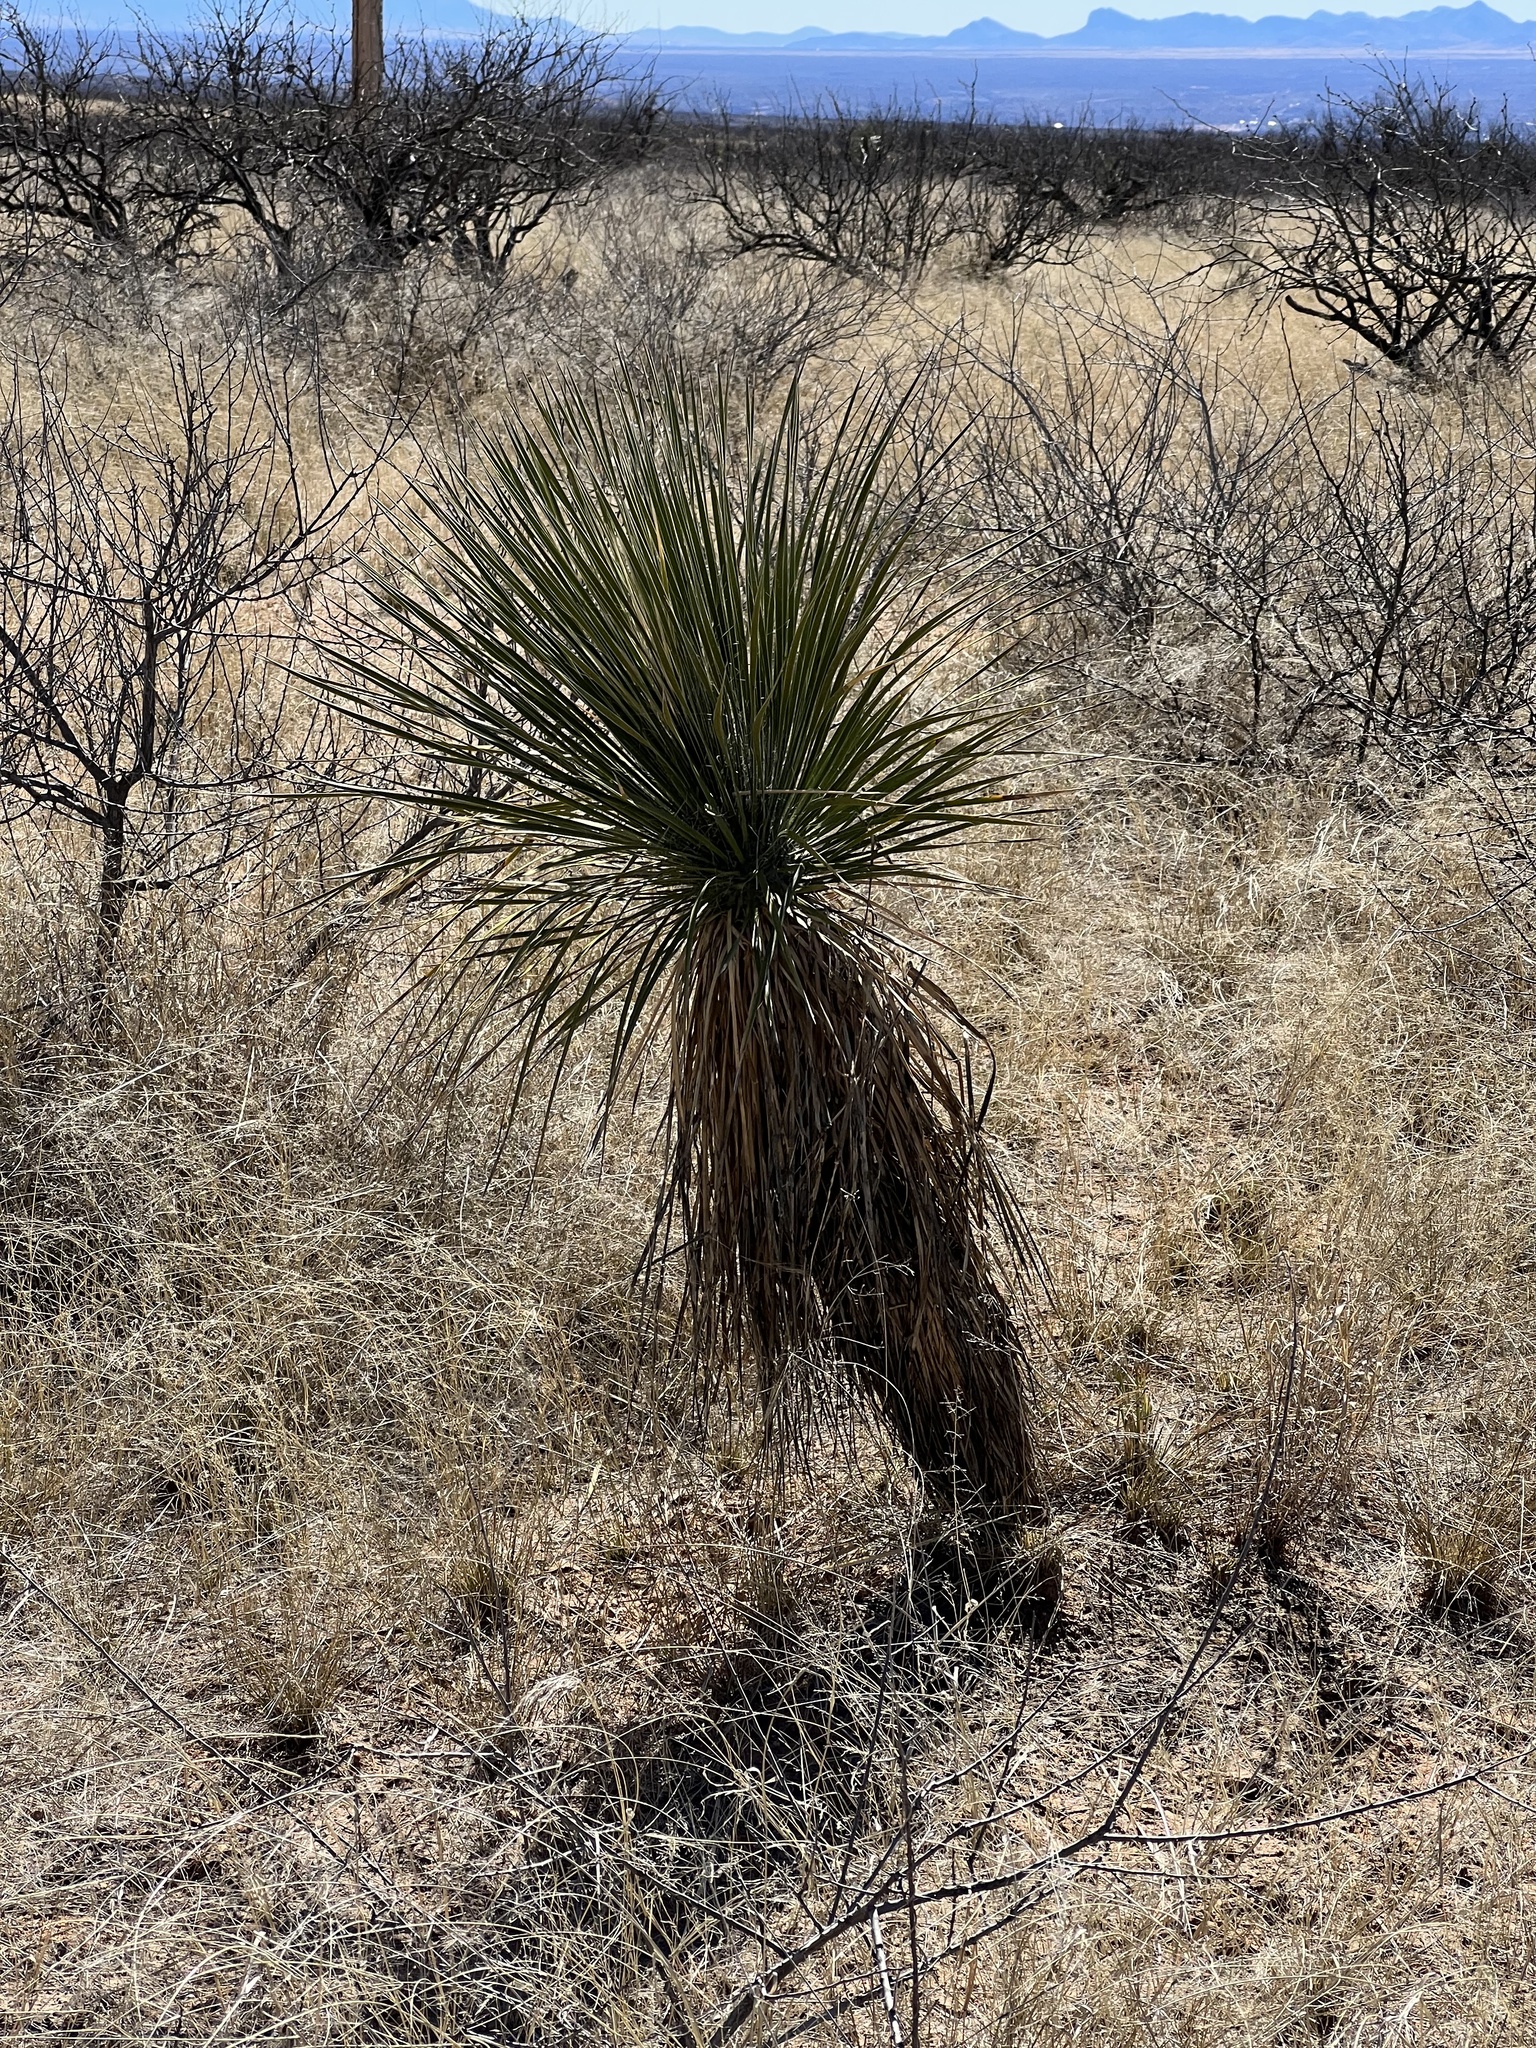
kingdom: Plantae
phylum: Tracheophyta
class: Liliopsida
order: Asparagales
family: Asparagaceae
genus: Yucca
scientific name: Yucca elata
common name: Palmella
